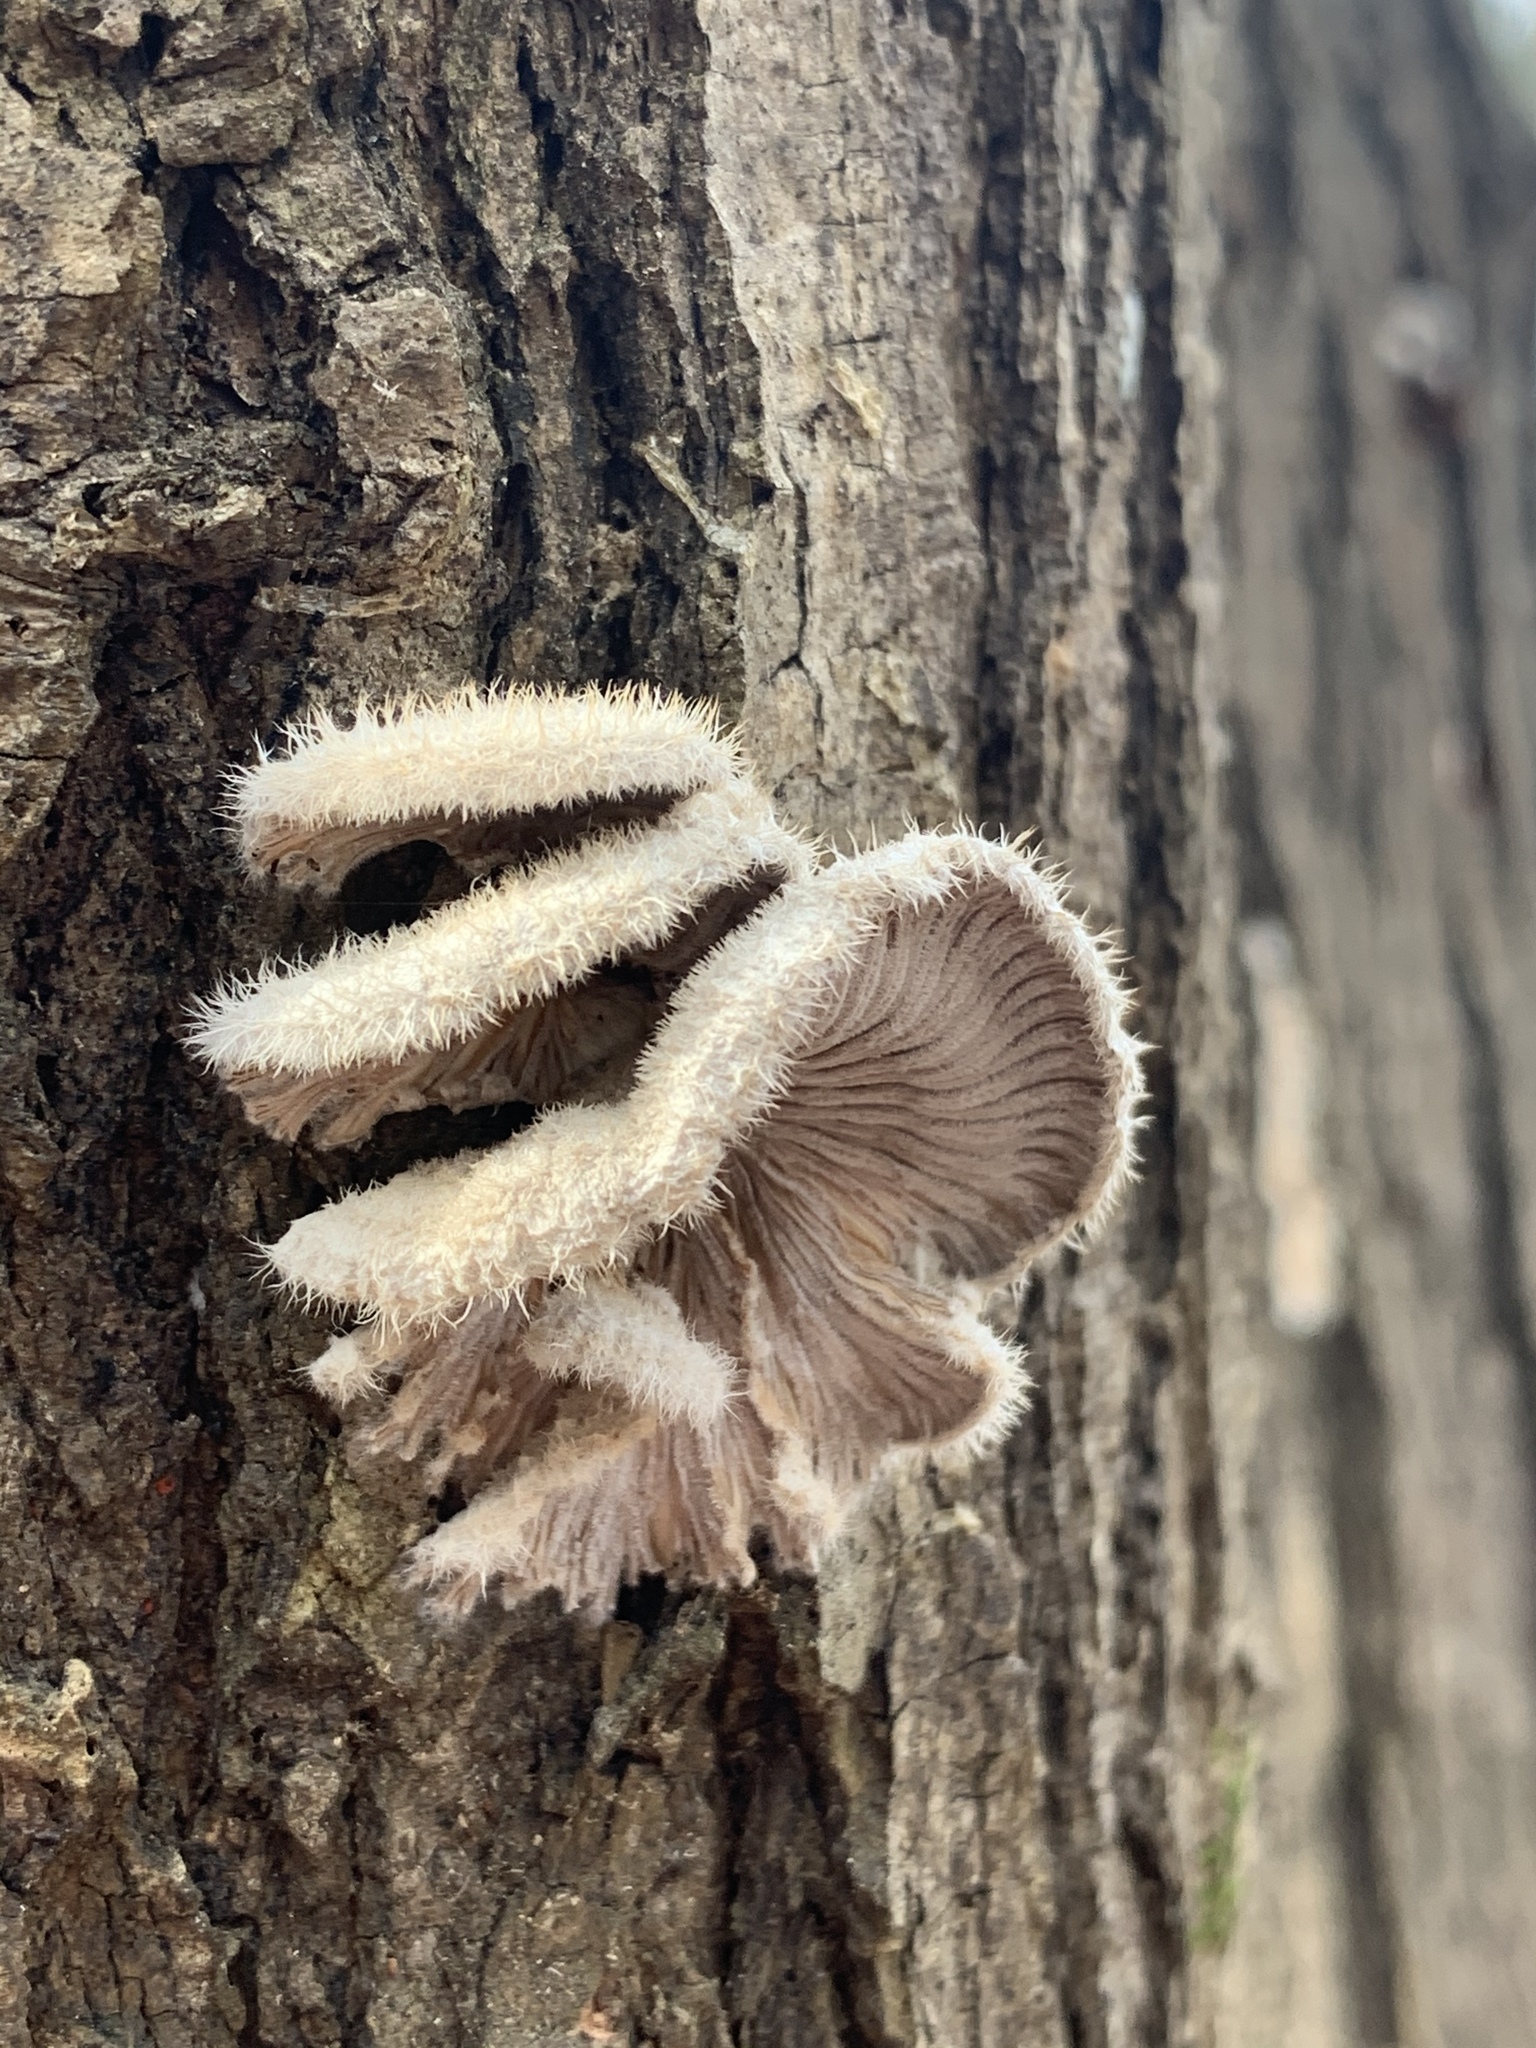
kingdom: Fungi
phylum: Basidiomycota
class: Agaricomycetes
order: Agaricales
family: Schizophyllaceae
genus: Schizophyllum
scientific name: Schizophyllum commune
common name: Common porecrust
